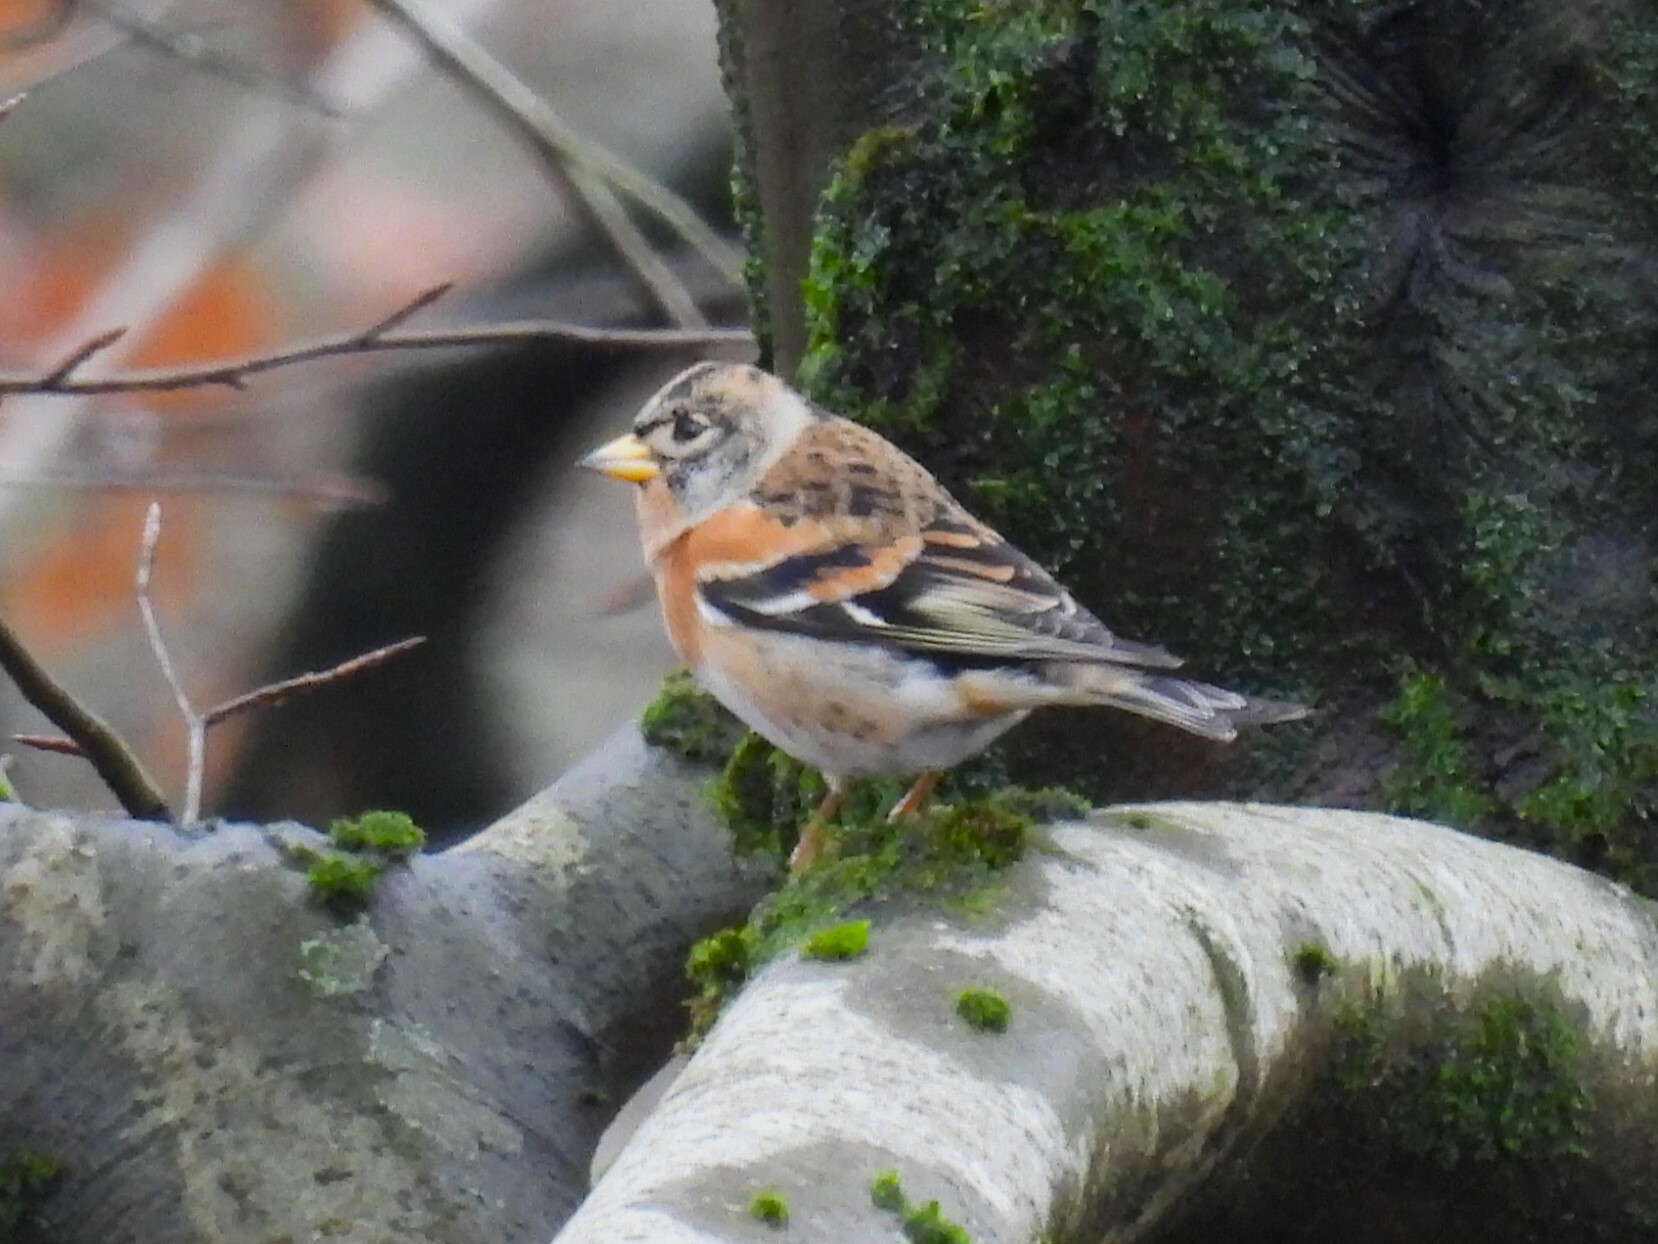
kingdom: Animalia
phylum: Chordata
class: Aves
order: Passeriformes
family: Fringillidae
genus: Fringilla
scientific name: Fringilla montifringilla
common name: Brambling
